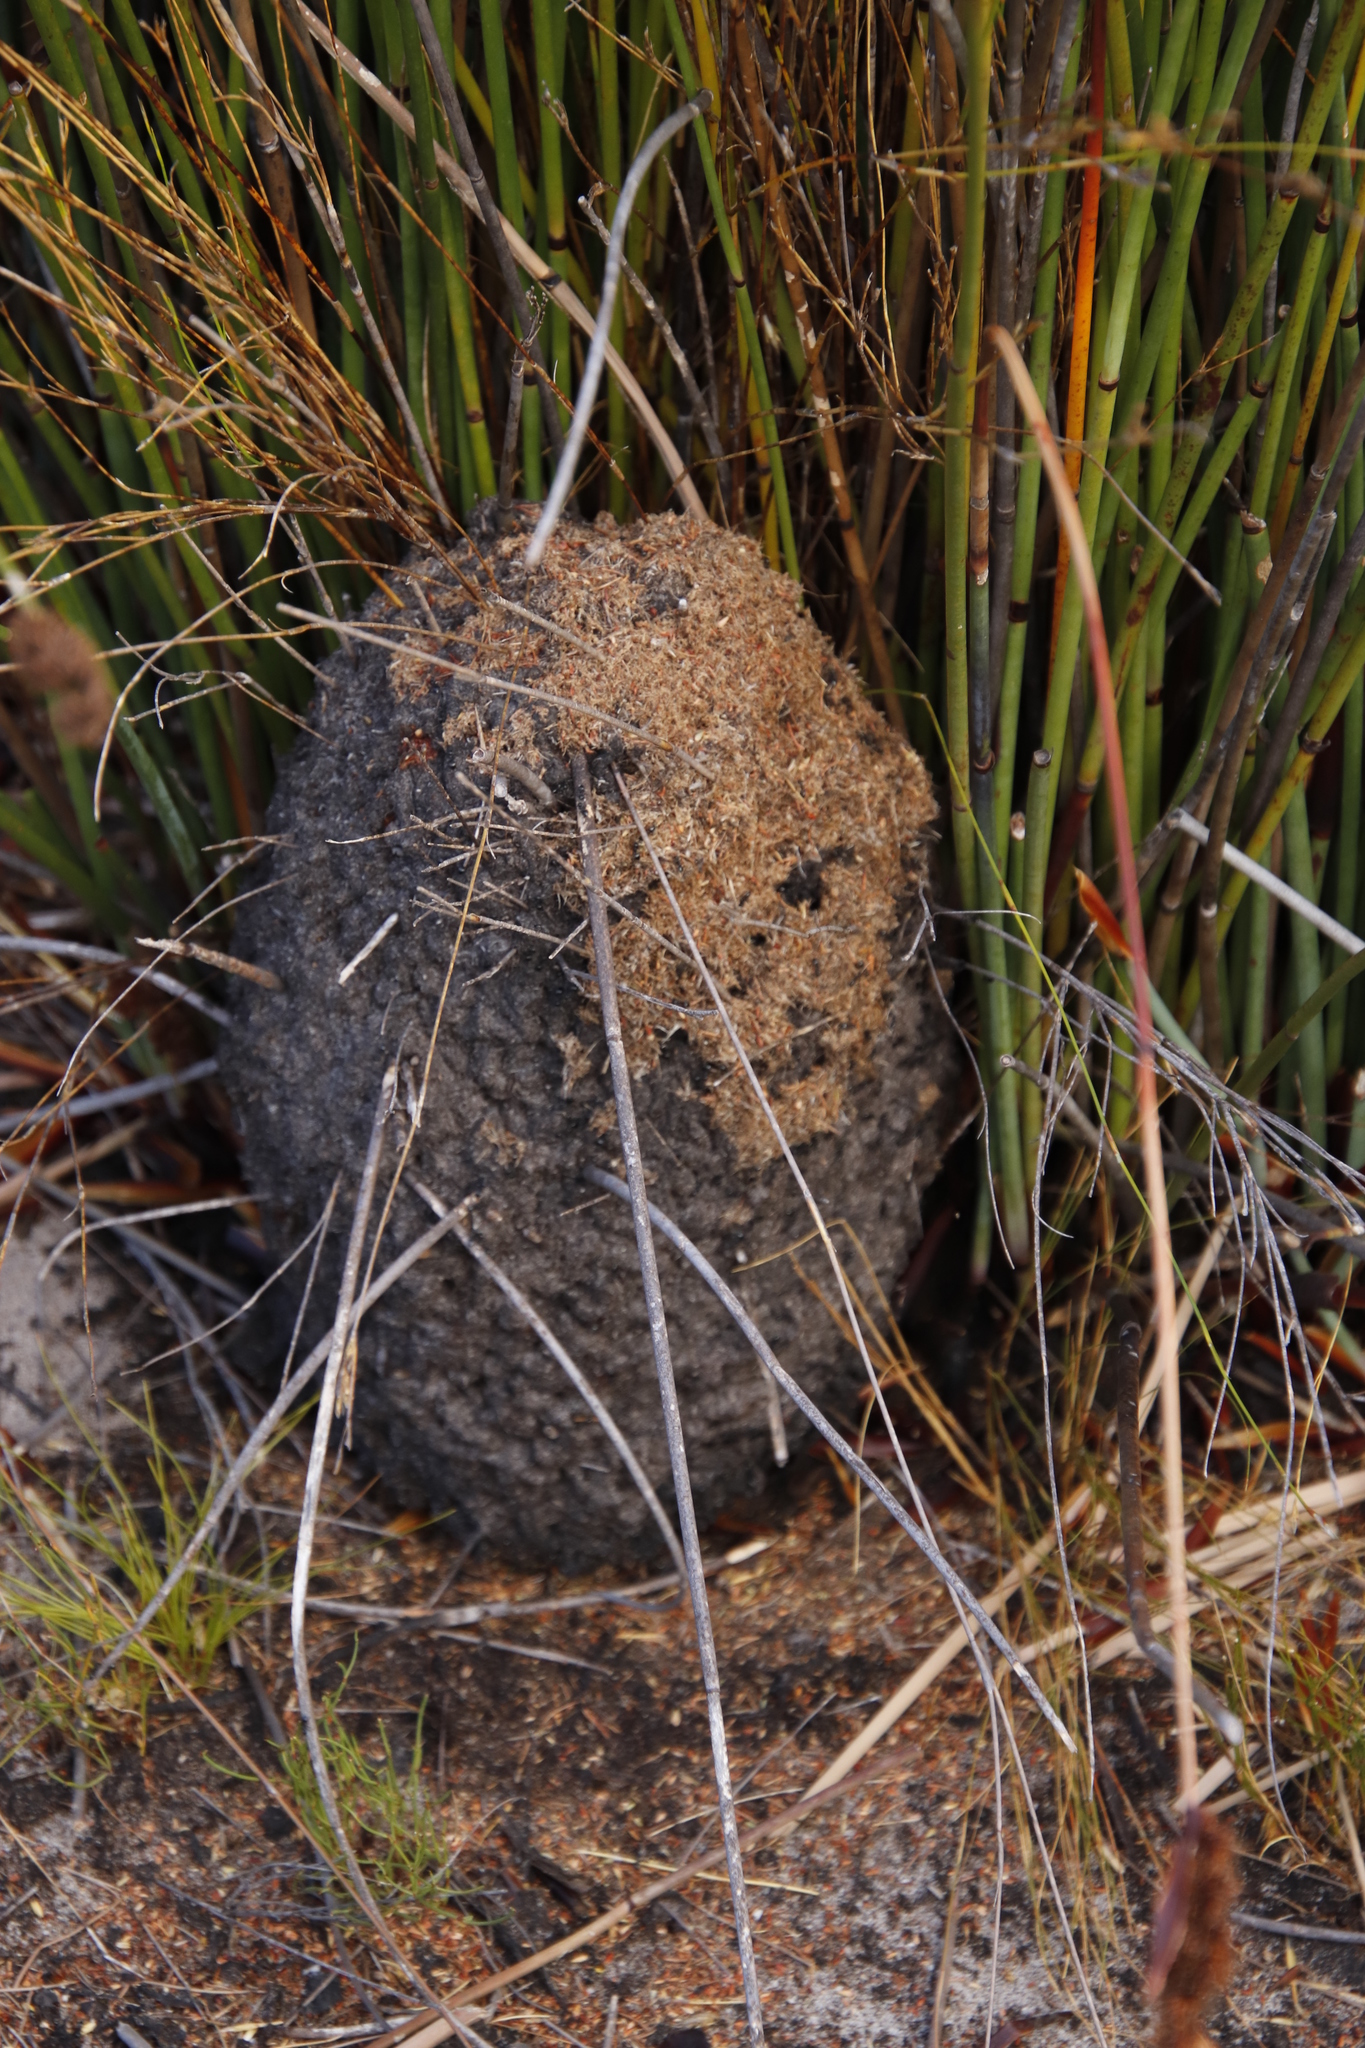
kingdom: Animalia
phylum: Arthropoda
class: Insecta
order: Hymenoptera
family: Formicidae
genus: Crematogaster
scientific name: Crematogaster peringueyi
